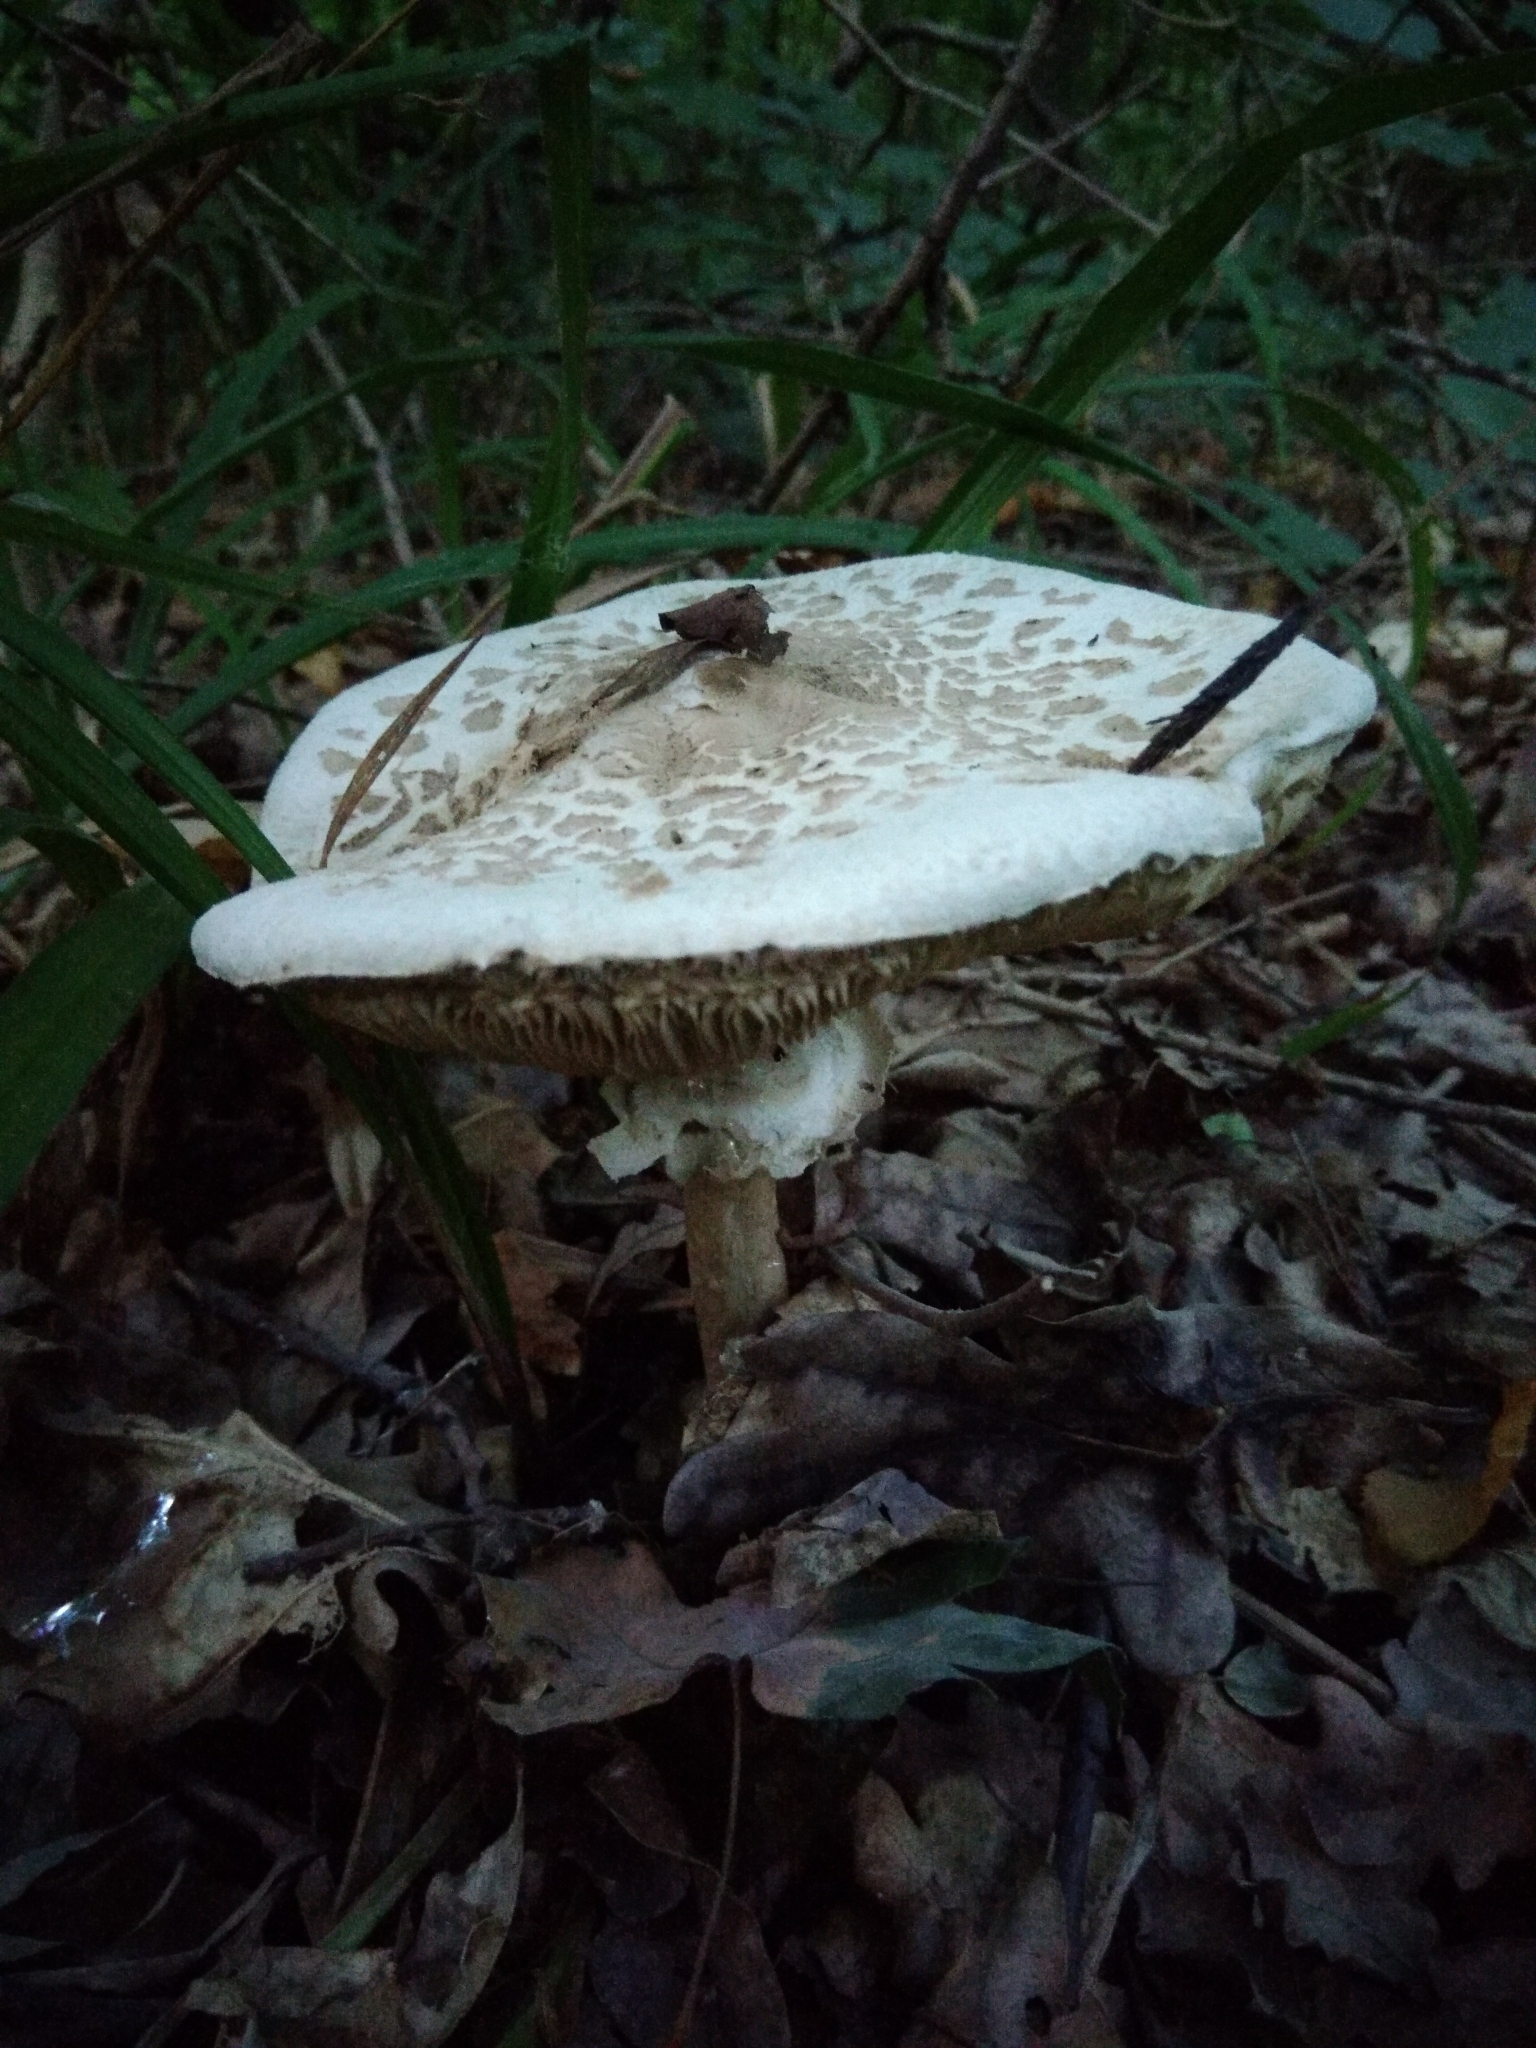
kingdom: Fungi
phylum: Basidiomycota
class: Agaricomycetes
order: Agaricales
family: Agaricaceae
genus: Macrolepiota
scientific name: Macrolepiota procera
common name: Parasol
